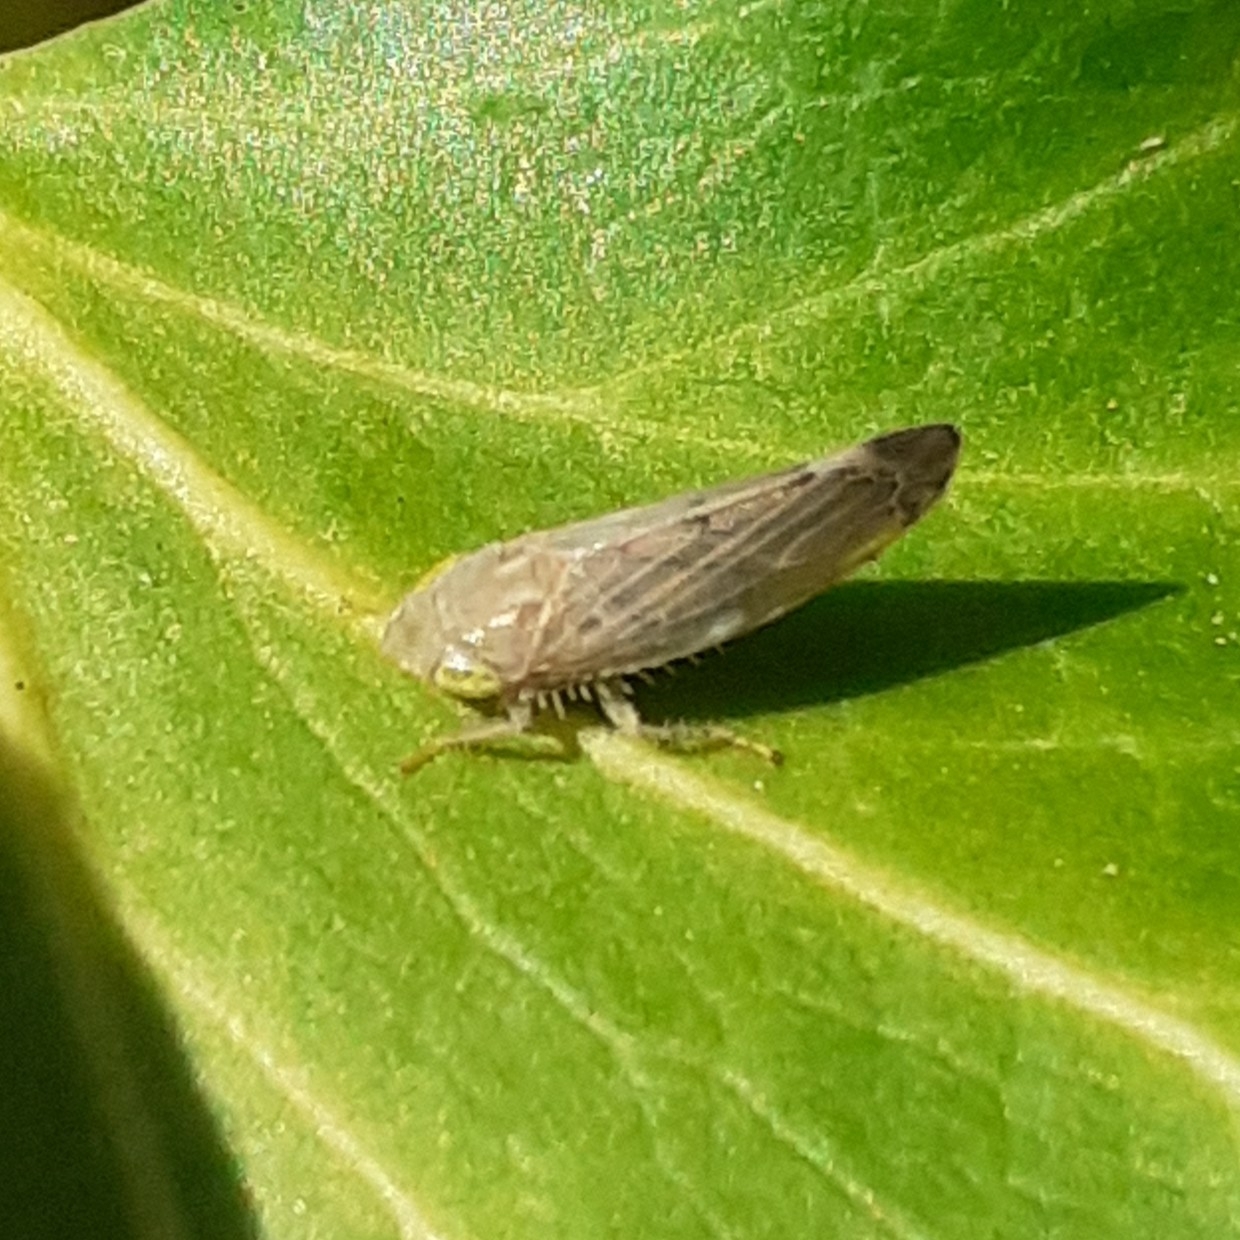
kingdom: Animalia
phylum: Arthropoda
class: Insecta
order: Hemiptera
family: Cicadellidae
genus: Synophropsis
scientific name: Synophropsis lauri
